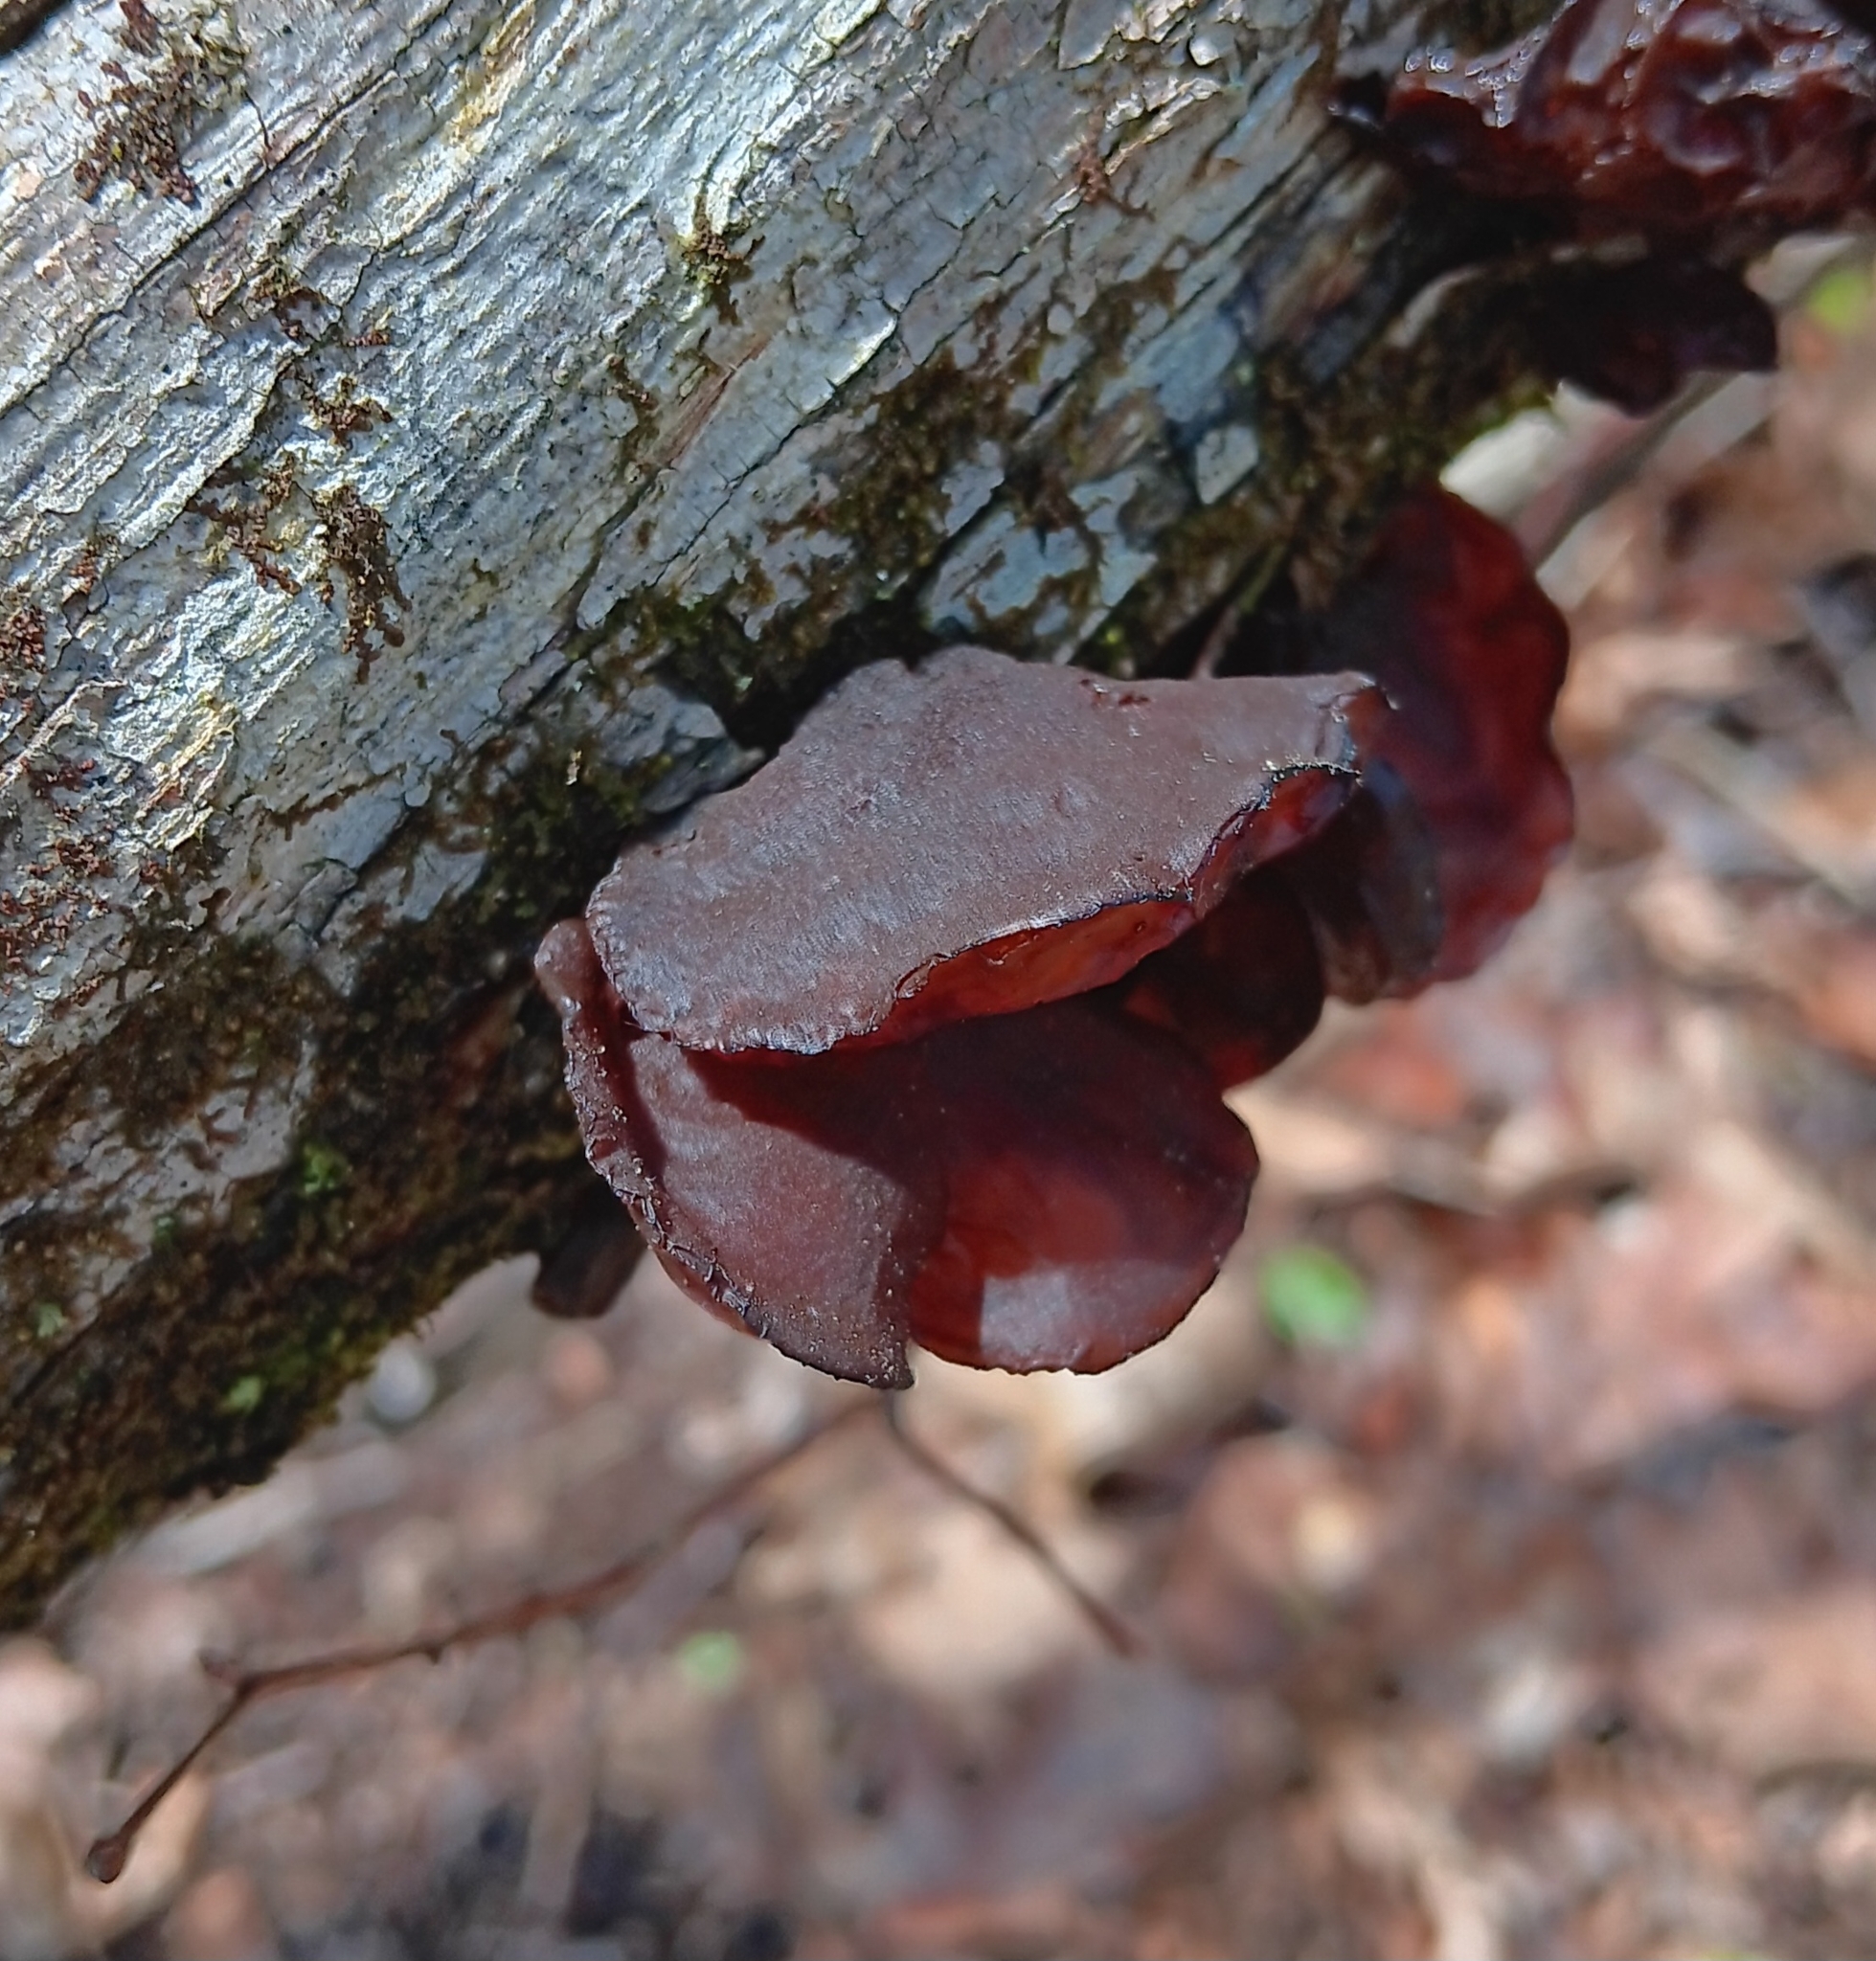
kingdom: Fungi
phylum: Basidiomycota
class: Agaricomycetes
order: Auriculariales
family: Auriculariaceae
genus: Exidia
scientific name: Exidia
